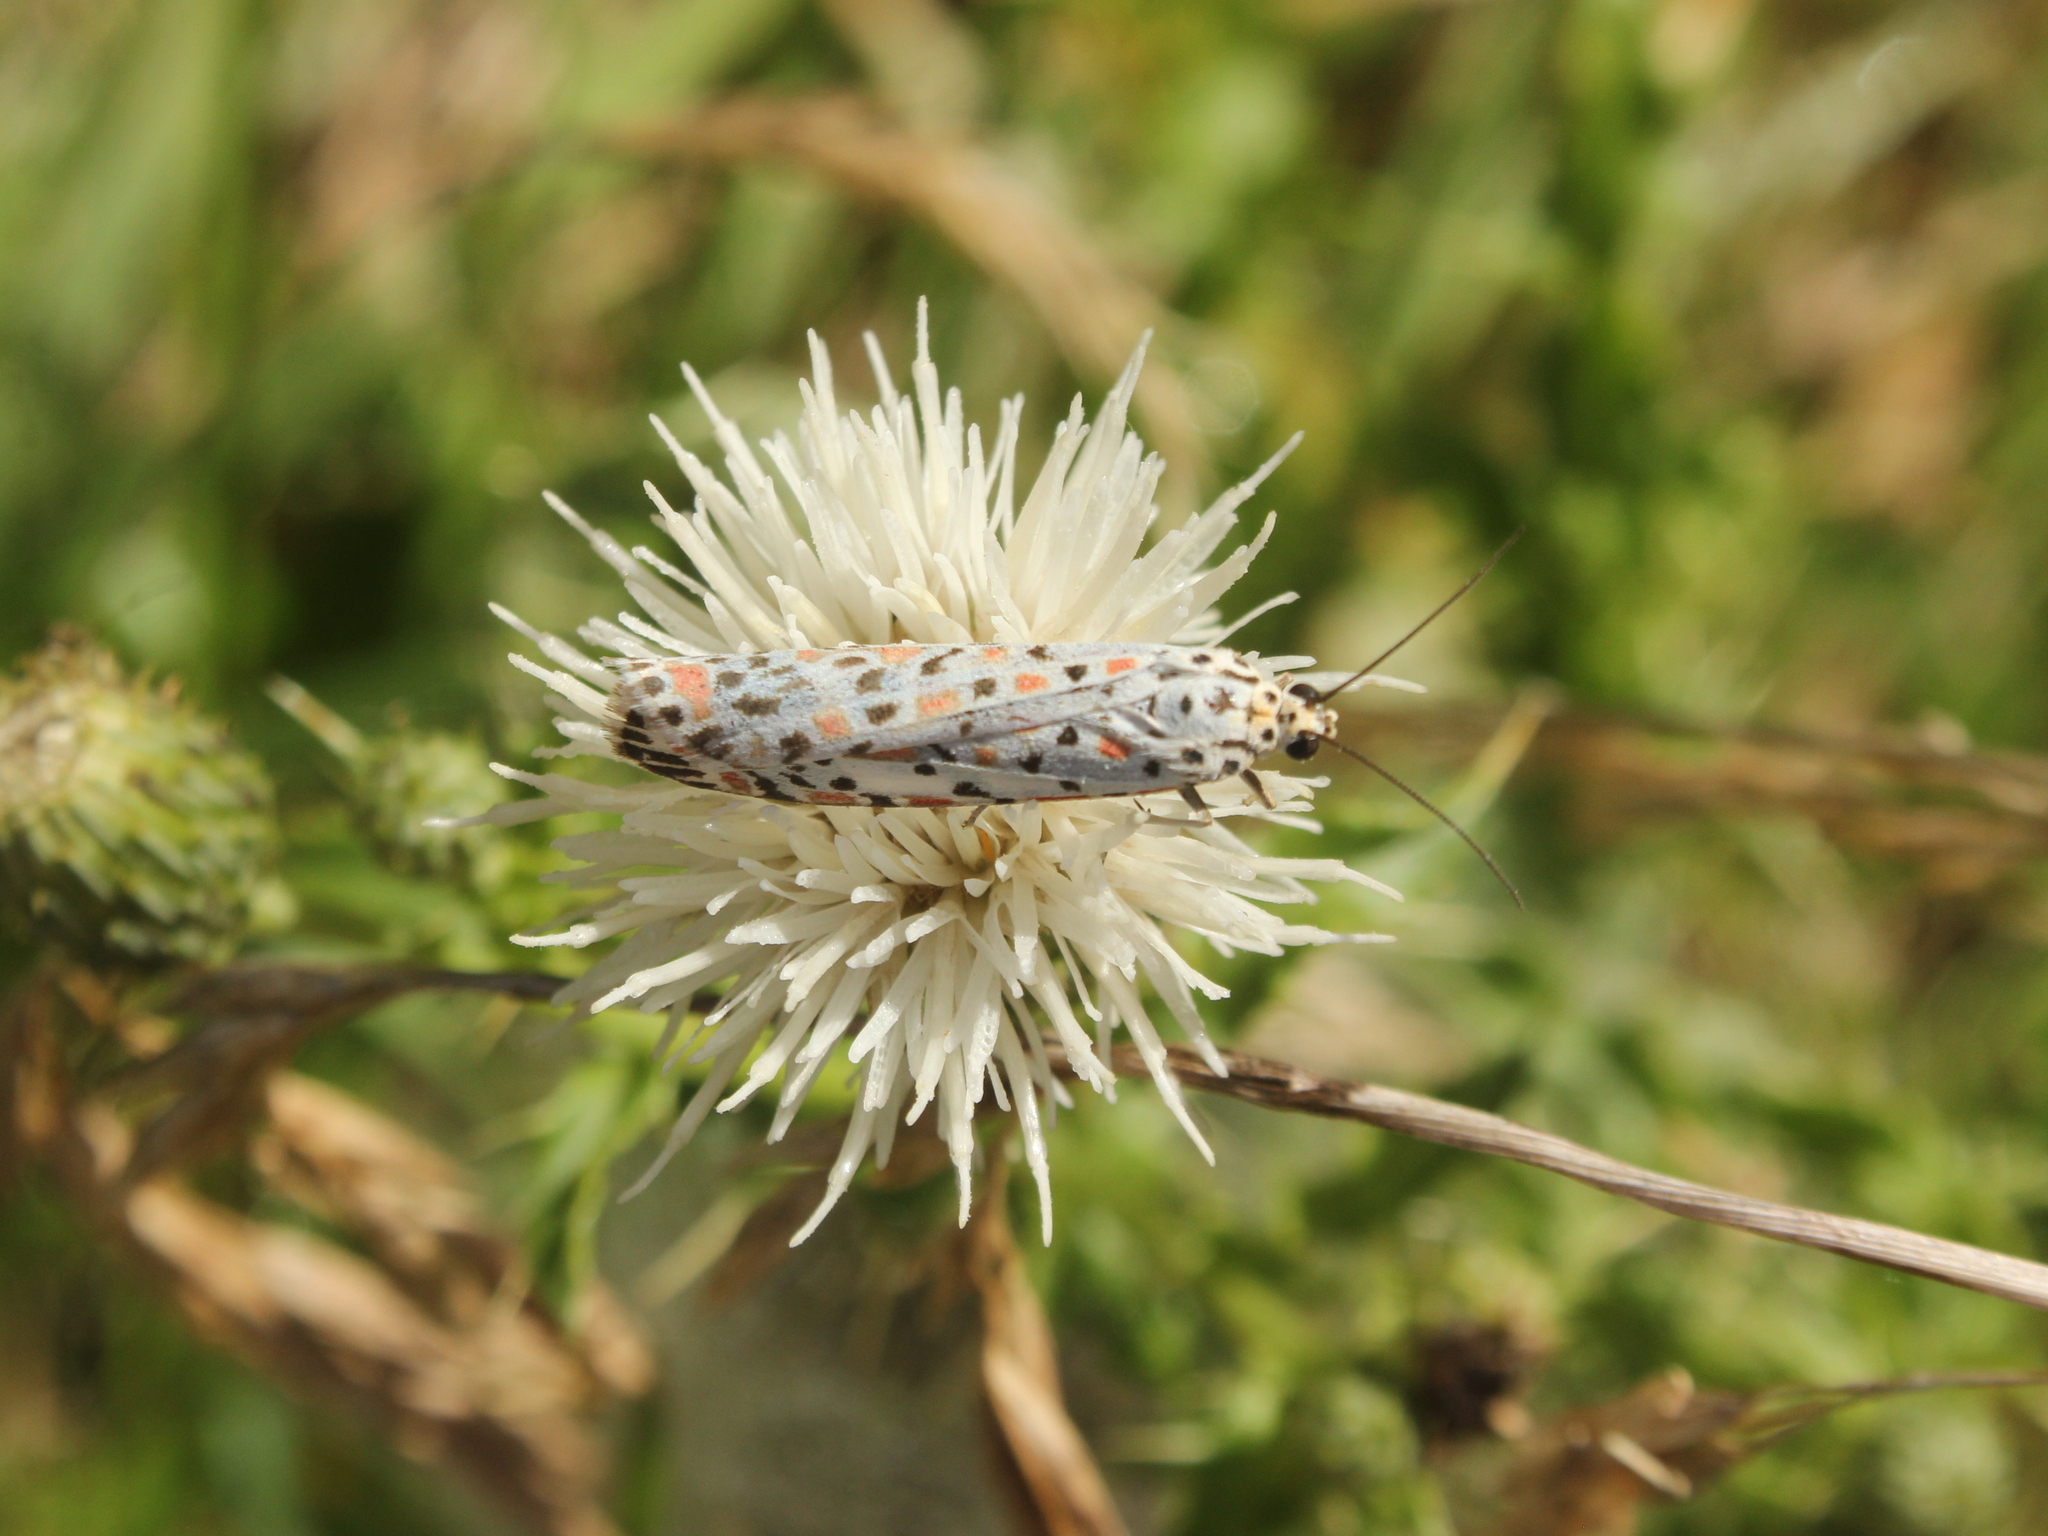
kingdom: Animalia
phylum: Arthropoda
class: Insecta
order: Lepidoptera
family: Erebidae
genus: Utetheisa
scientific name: Utetheisa pulchelloides
